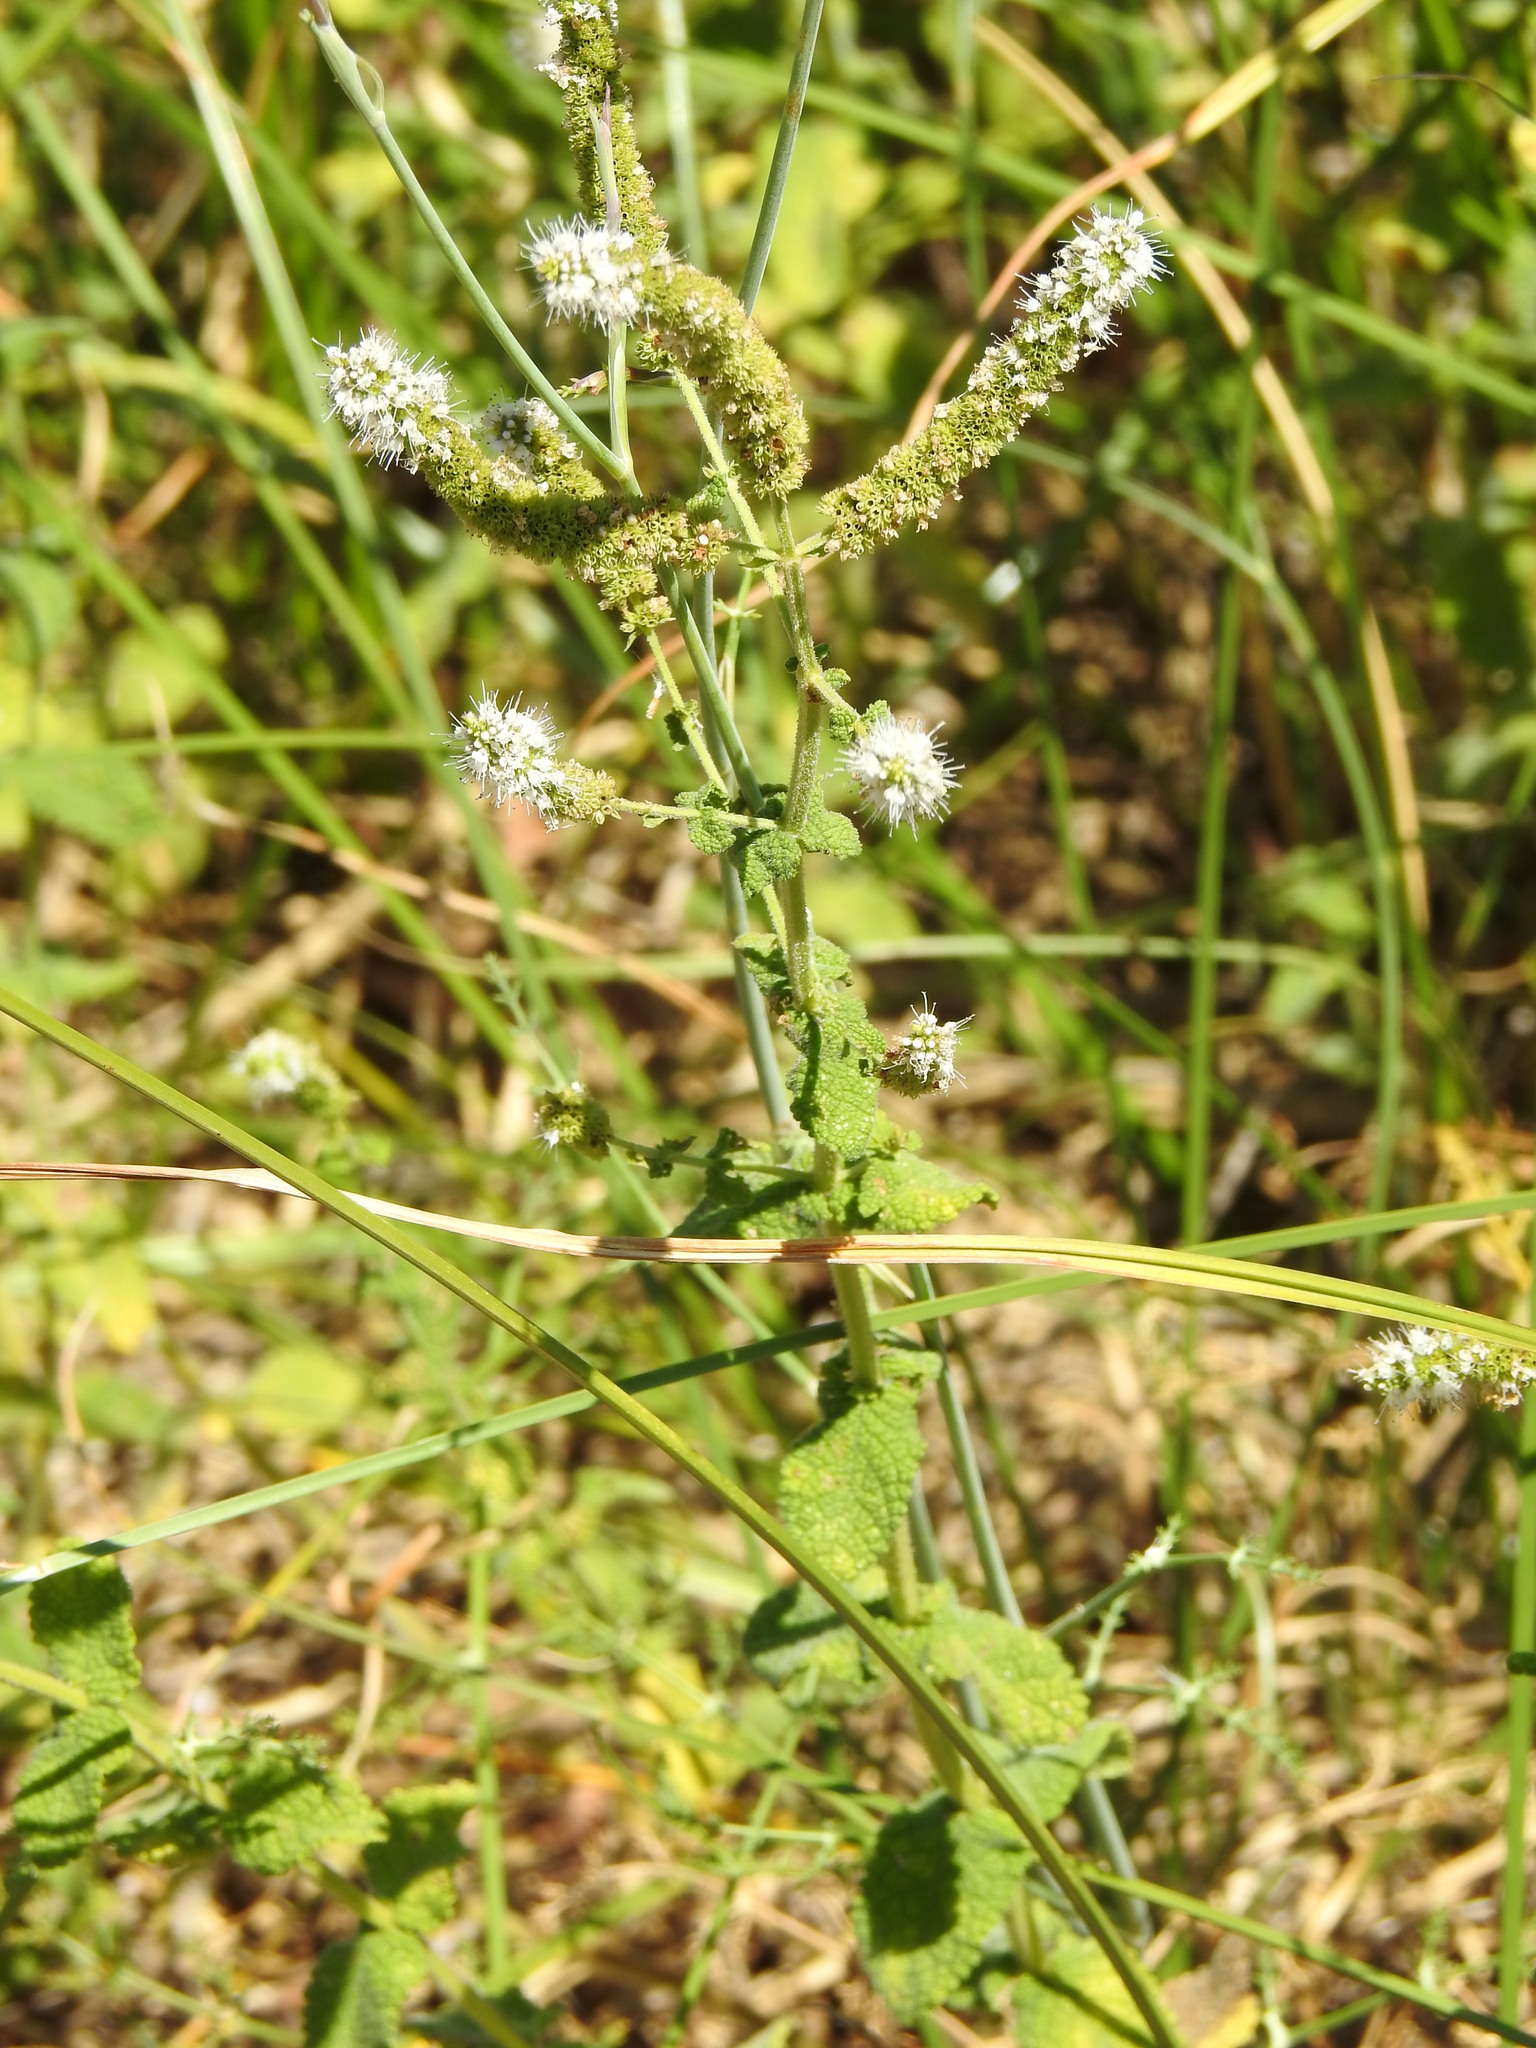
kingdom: Plantae
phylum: Tracheophyta
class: Magnoliopsida
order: Lamiales
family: Lamiaceae
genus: Mentha
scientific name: Mentha suaveolens
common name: Apple mint
